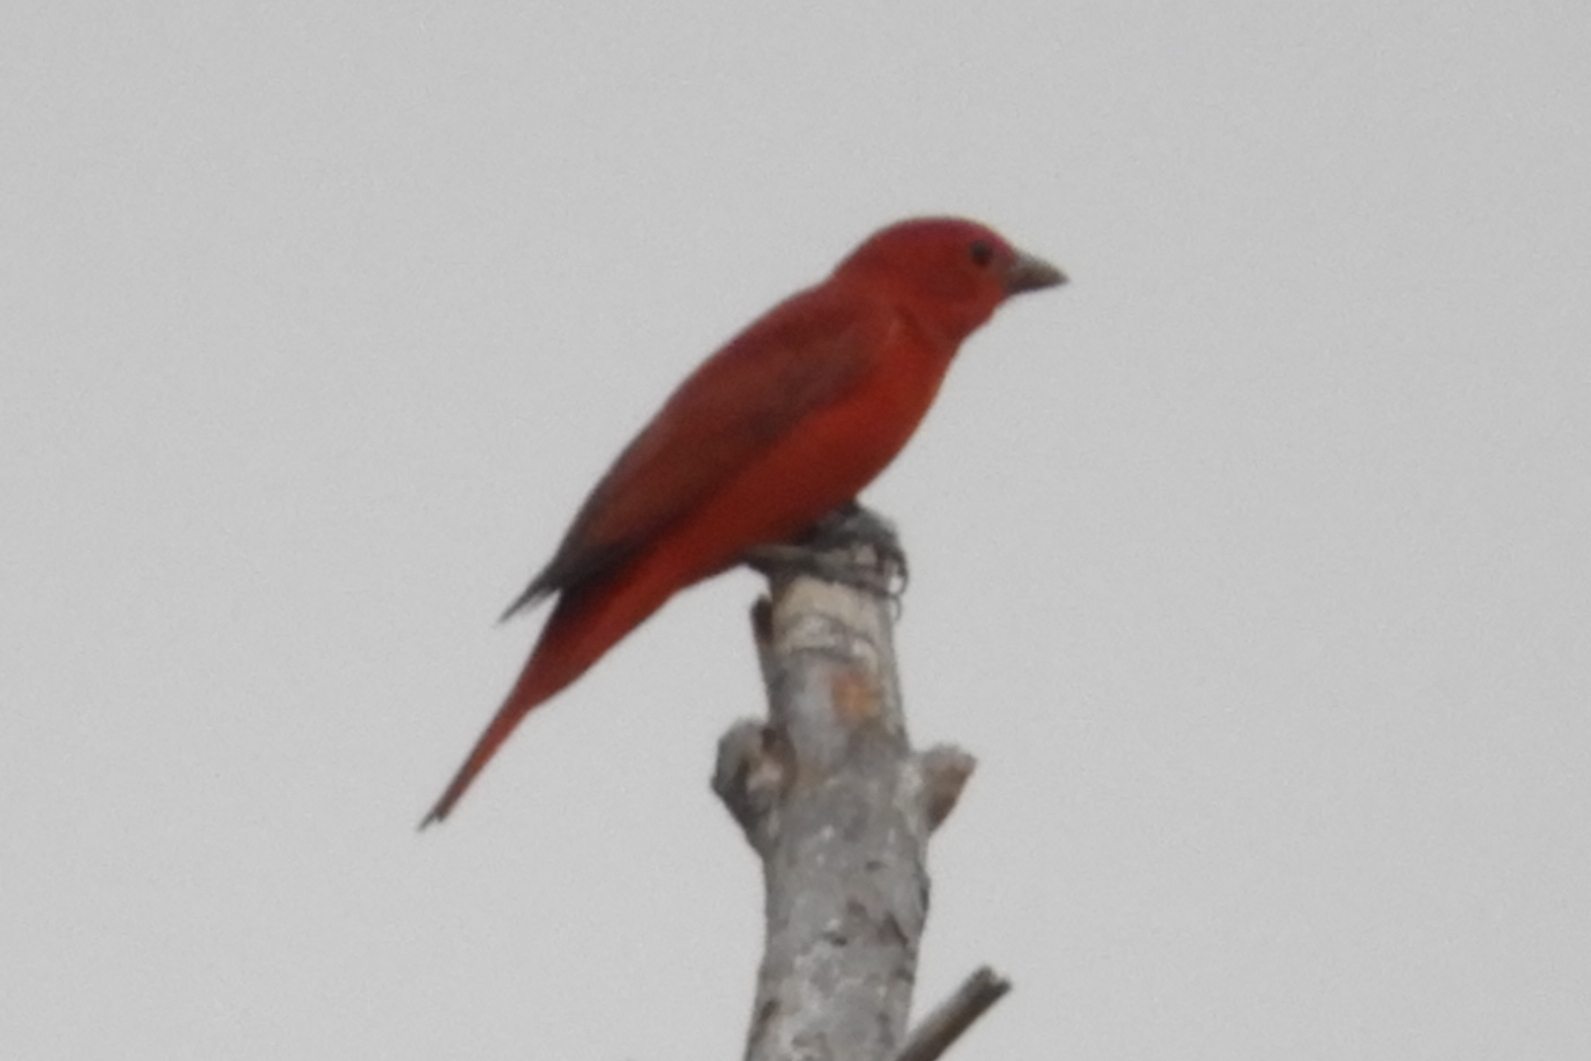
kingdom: Animalia
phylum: Chordata
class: Aves
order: Passeriformes
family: Cardinalidae
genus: Piranga
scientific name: Piranga rubra
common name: Summer tanager
